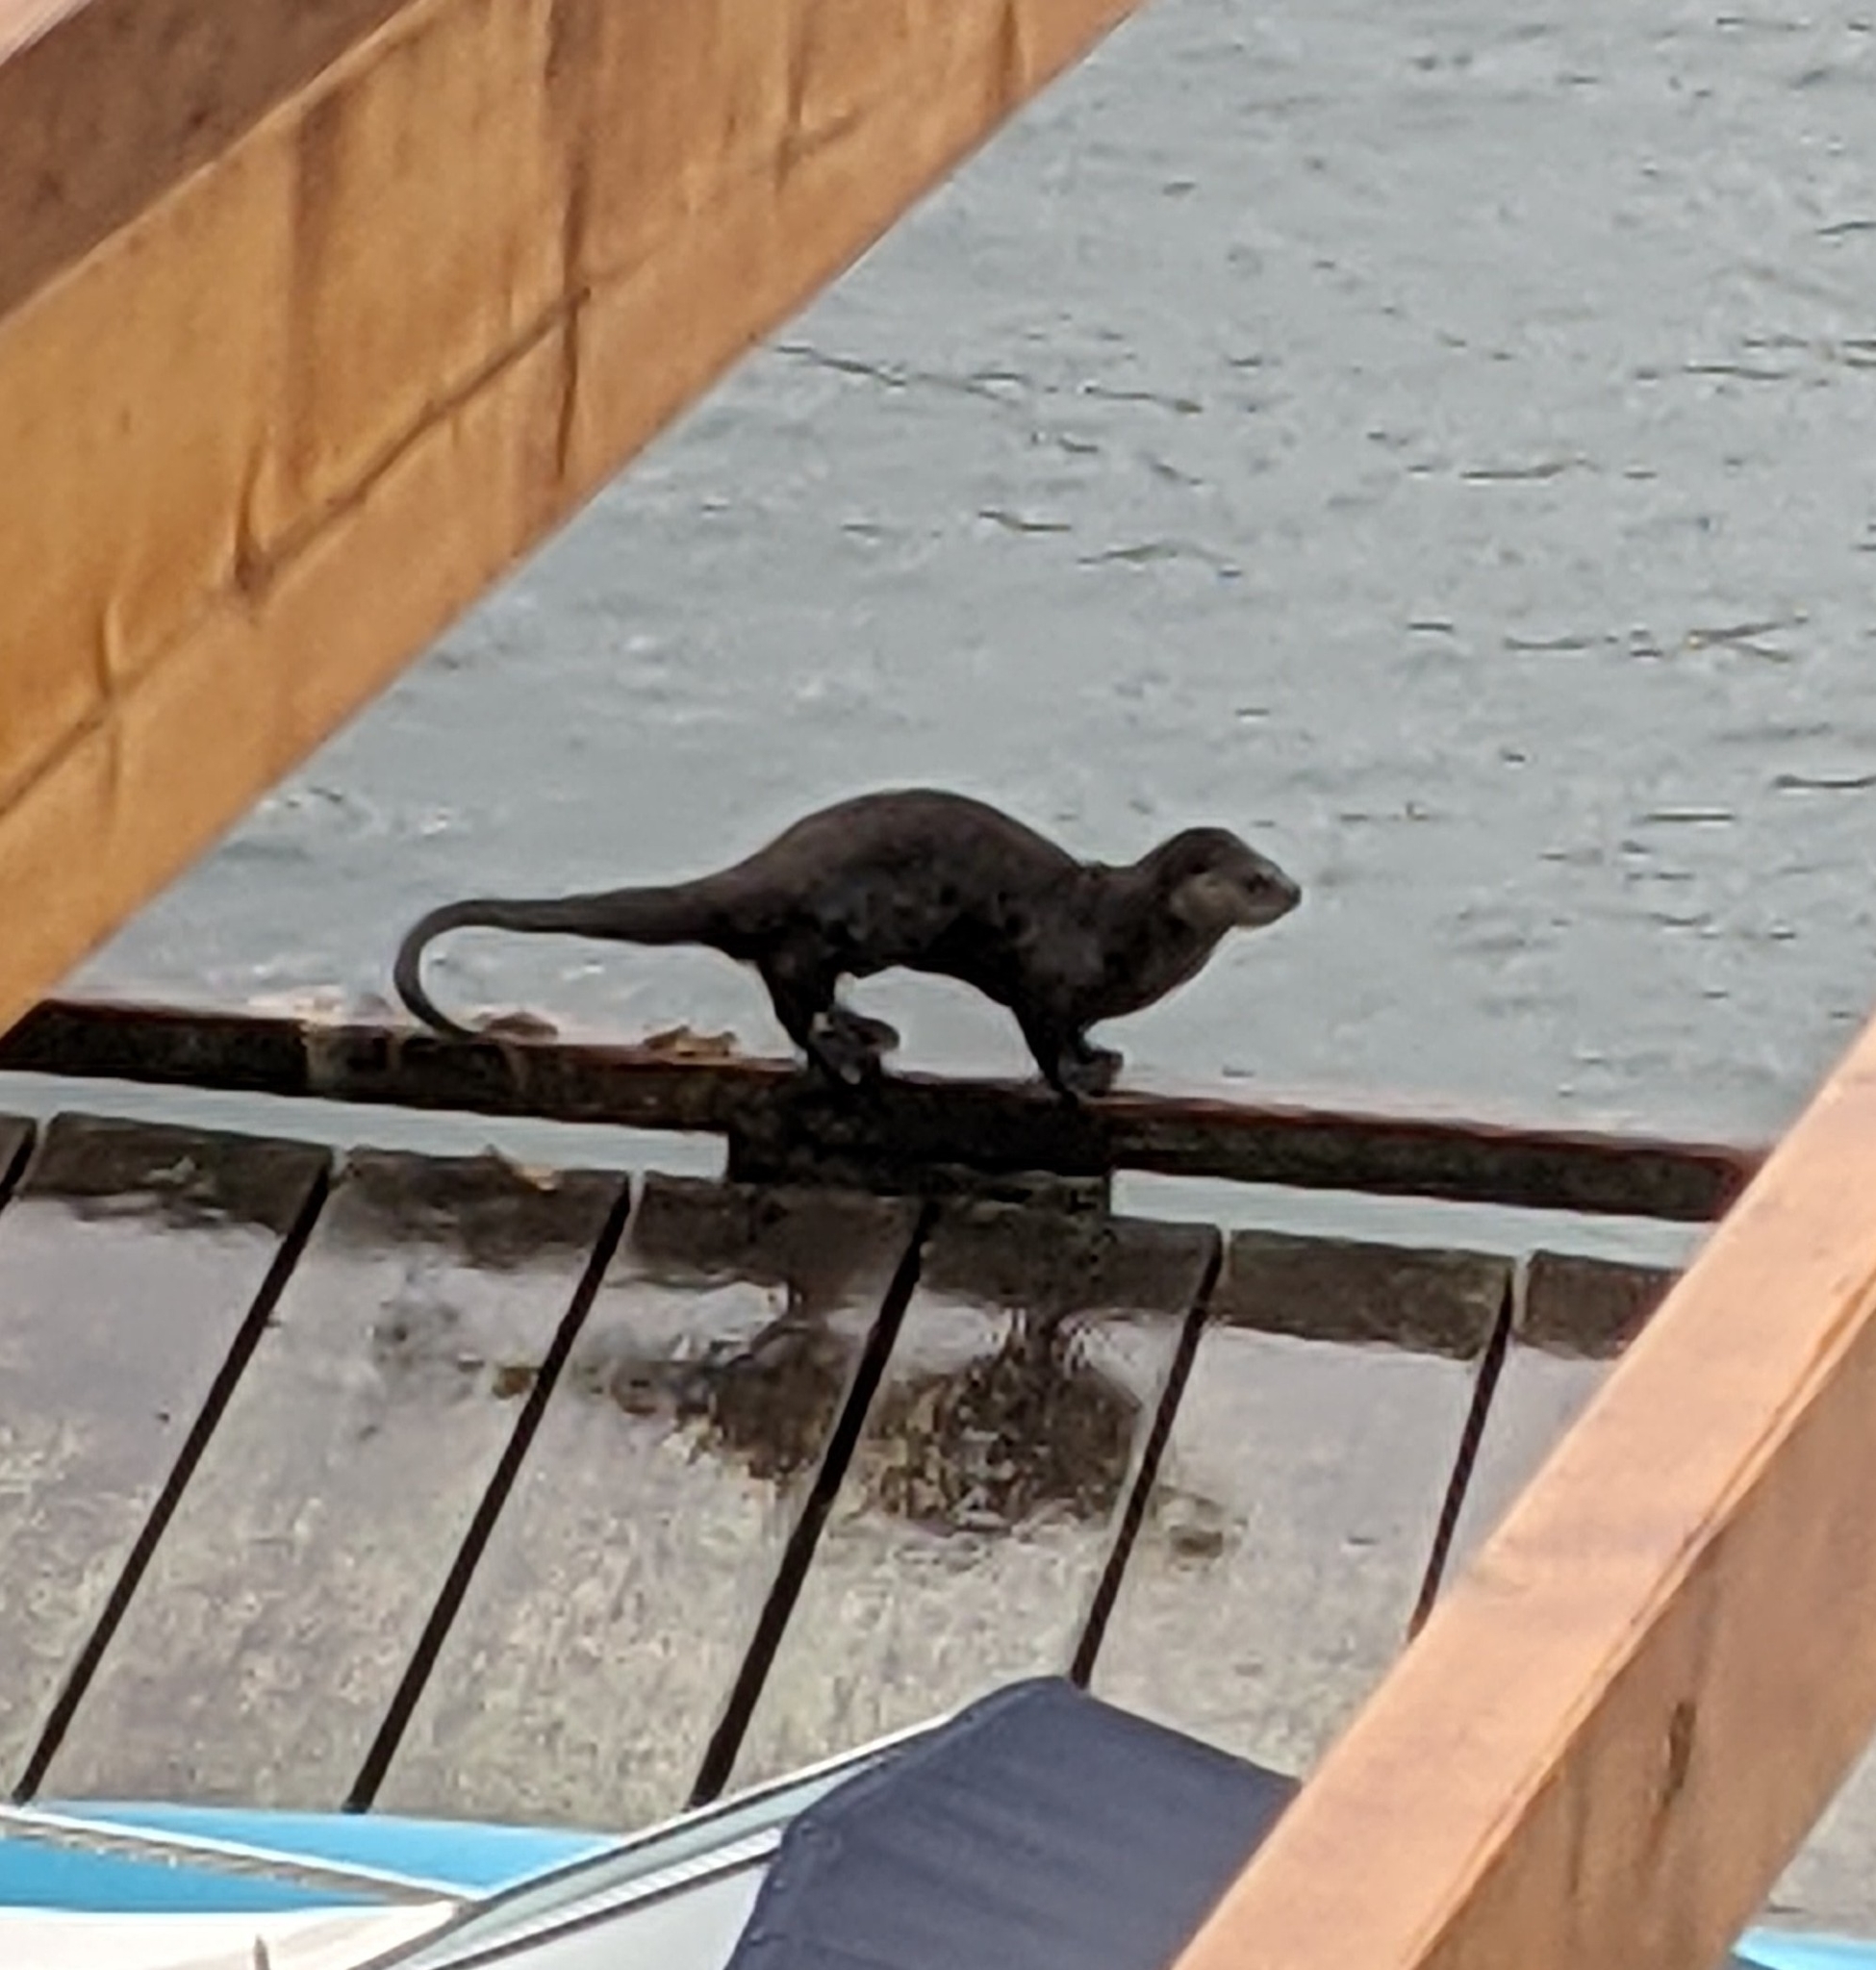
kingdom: Animalia
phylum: Chordata
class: Mammalia
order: Carnivora
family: Mustelidae
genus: Lontra
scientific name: Lontra canadensis
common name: North american river otter
